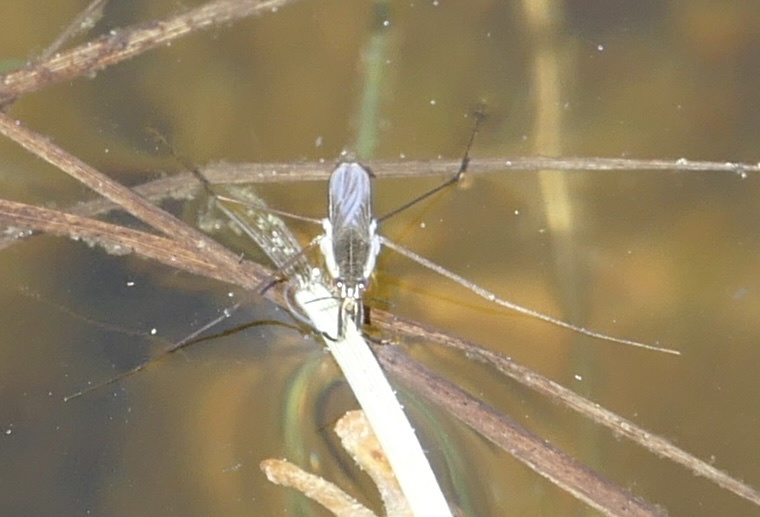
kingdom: Animalia
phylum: Arthropoda
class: Insecta
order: Hemiptera
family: Gerridae
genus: Gerris
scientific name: Gerris
